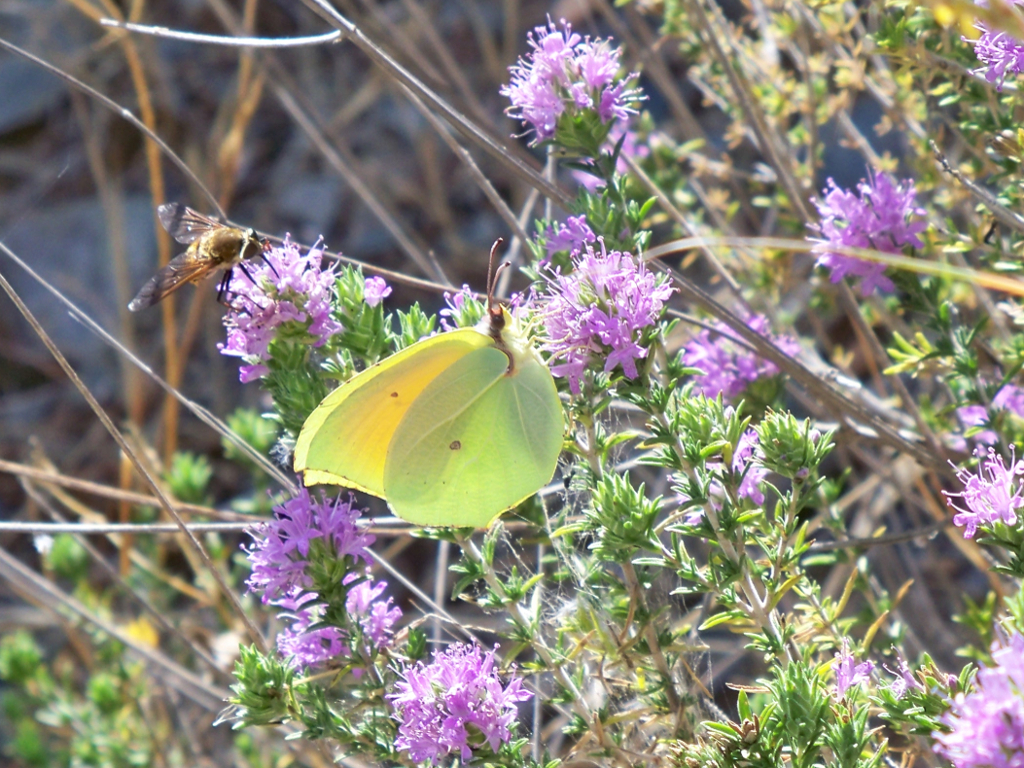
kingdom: Animalia
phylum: Arthropoda
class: Insecta
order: Lepidoptera
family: Pieridae
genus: Gonepteryx
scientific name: Gonepteryx cleopatra
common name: Cleopatra
